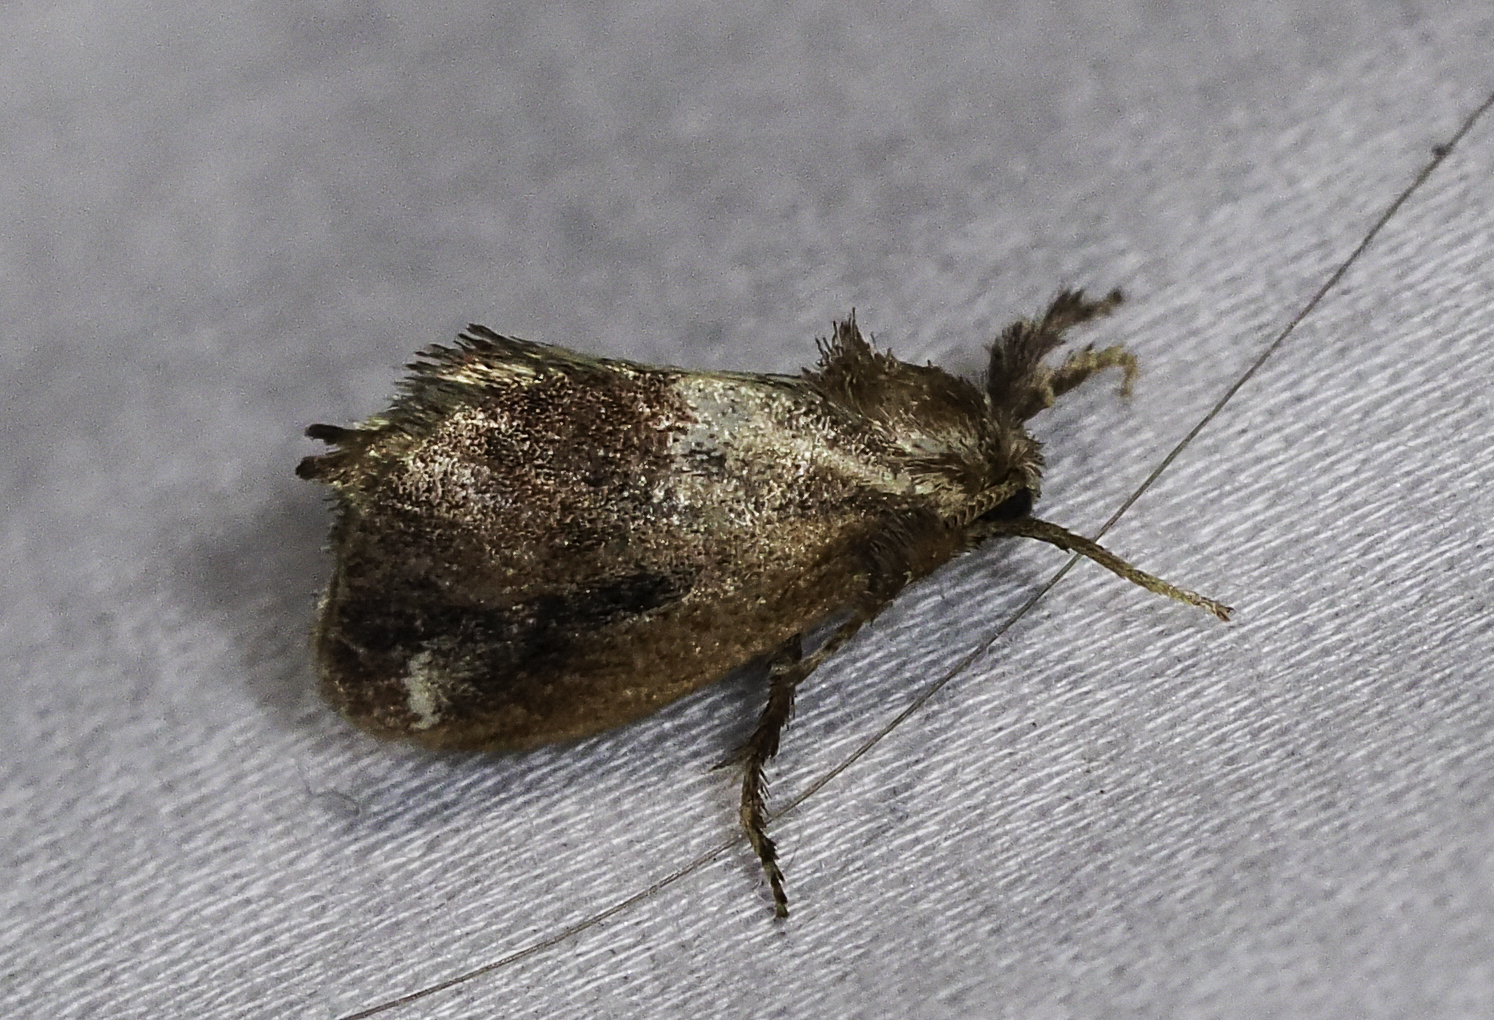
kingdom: Animalia
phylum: Arthropoda
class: Insecta
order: Lepidoptera
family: Limacodidae
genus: Adoneta
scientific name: Adoneta spinuloides
